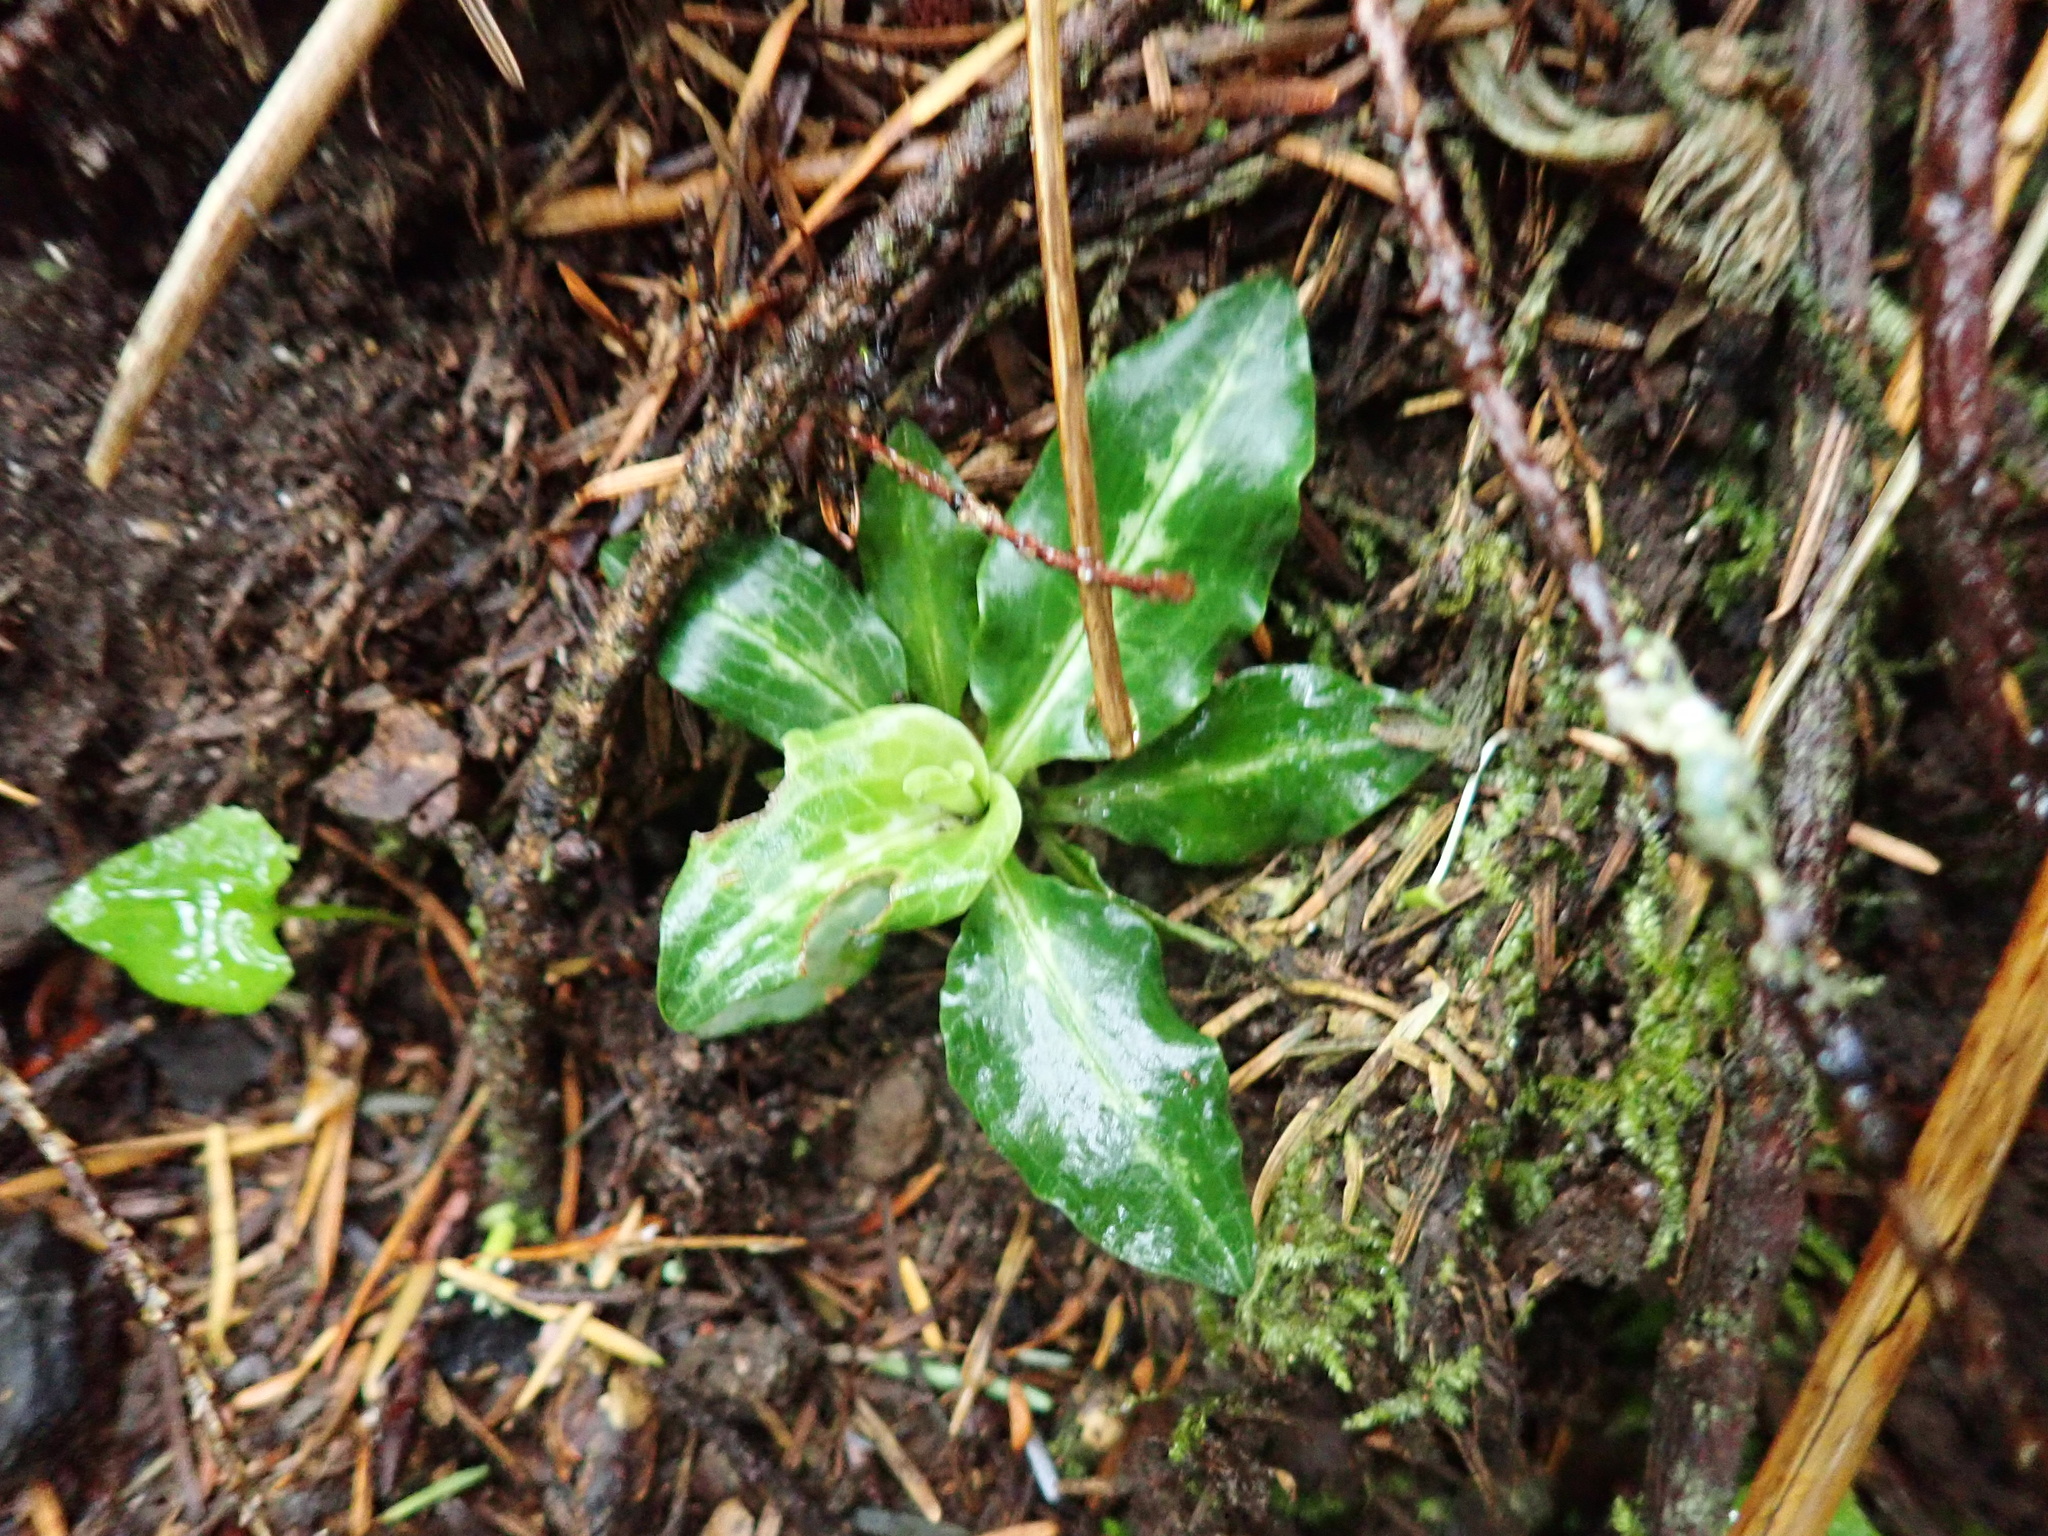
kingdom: Plantae
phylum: Tracheophyta
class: Liliopsida
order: Asparagales
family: Orchidaceae
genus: Goodyera
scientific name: Goodyera oblongifolia
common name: Giant rattlesnake-plantain
